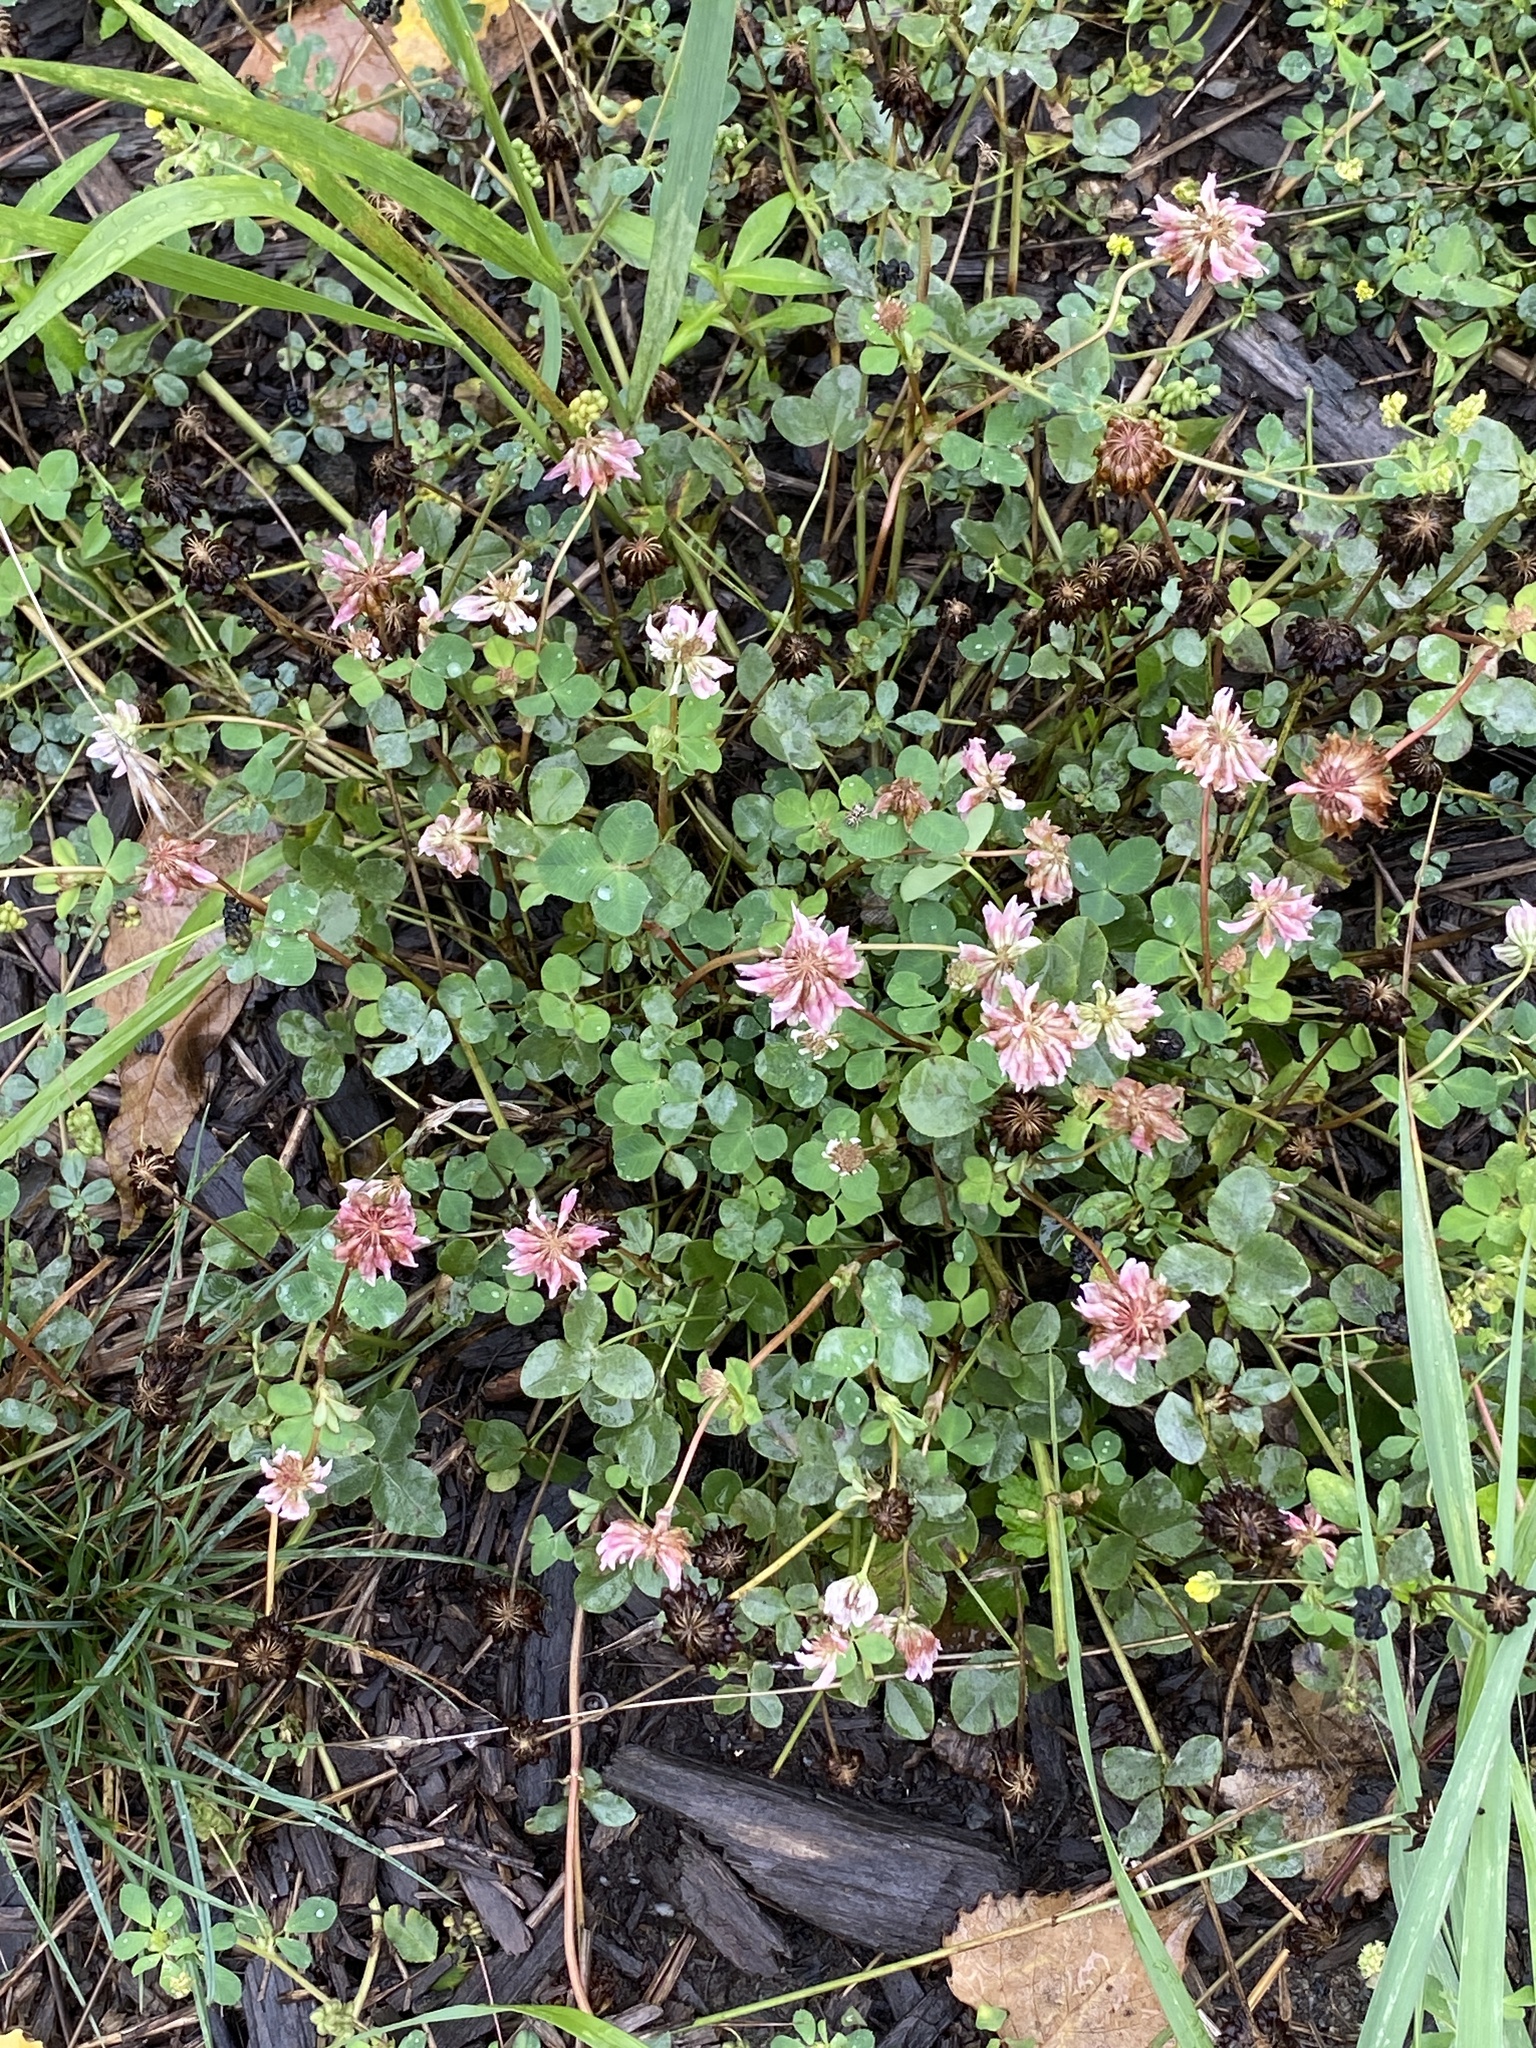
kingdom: Plantae
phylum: Tracheophyta
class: Magnoliopsida
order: Fabales
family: Fabaceae
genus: Trifolium
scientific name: Trifolium hybridum
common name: Alsike clover
